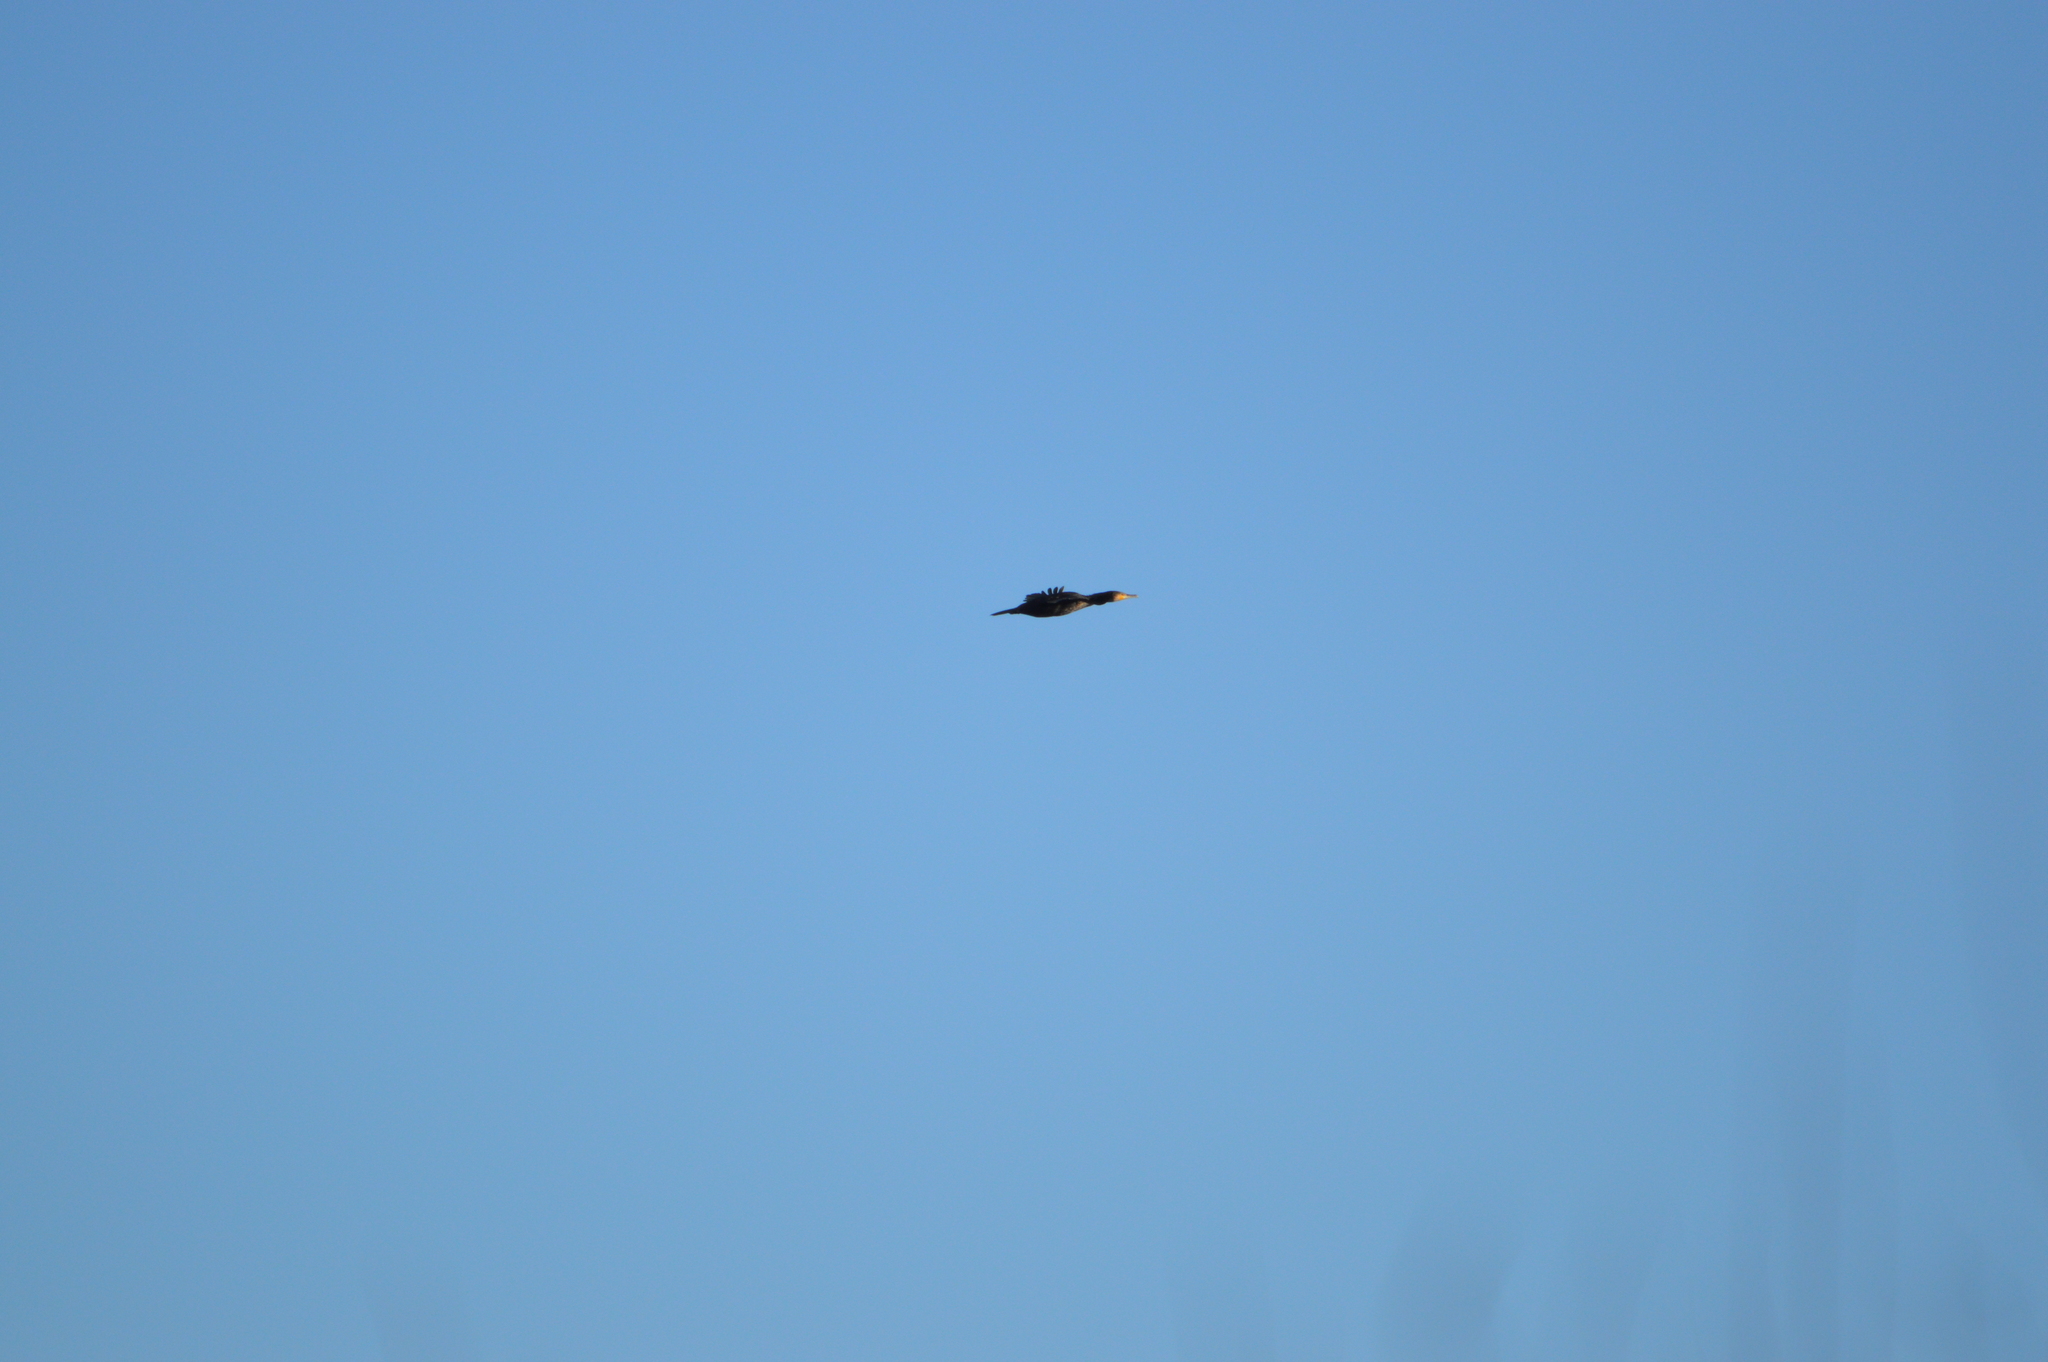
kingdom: Animalia
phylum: Chordata
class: Aves
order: Suliformes
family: Phalacrocoracidae
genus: Phalacrocorax
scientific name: Phalacrocorax carbo
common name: Great cormorant
